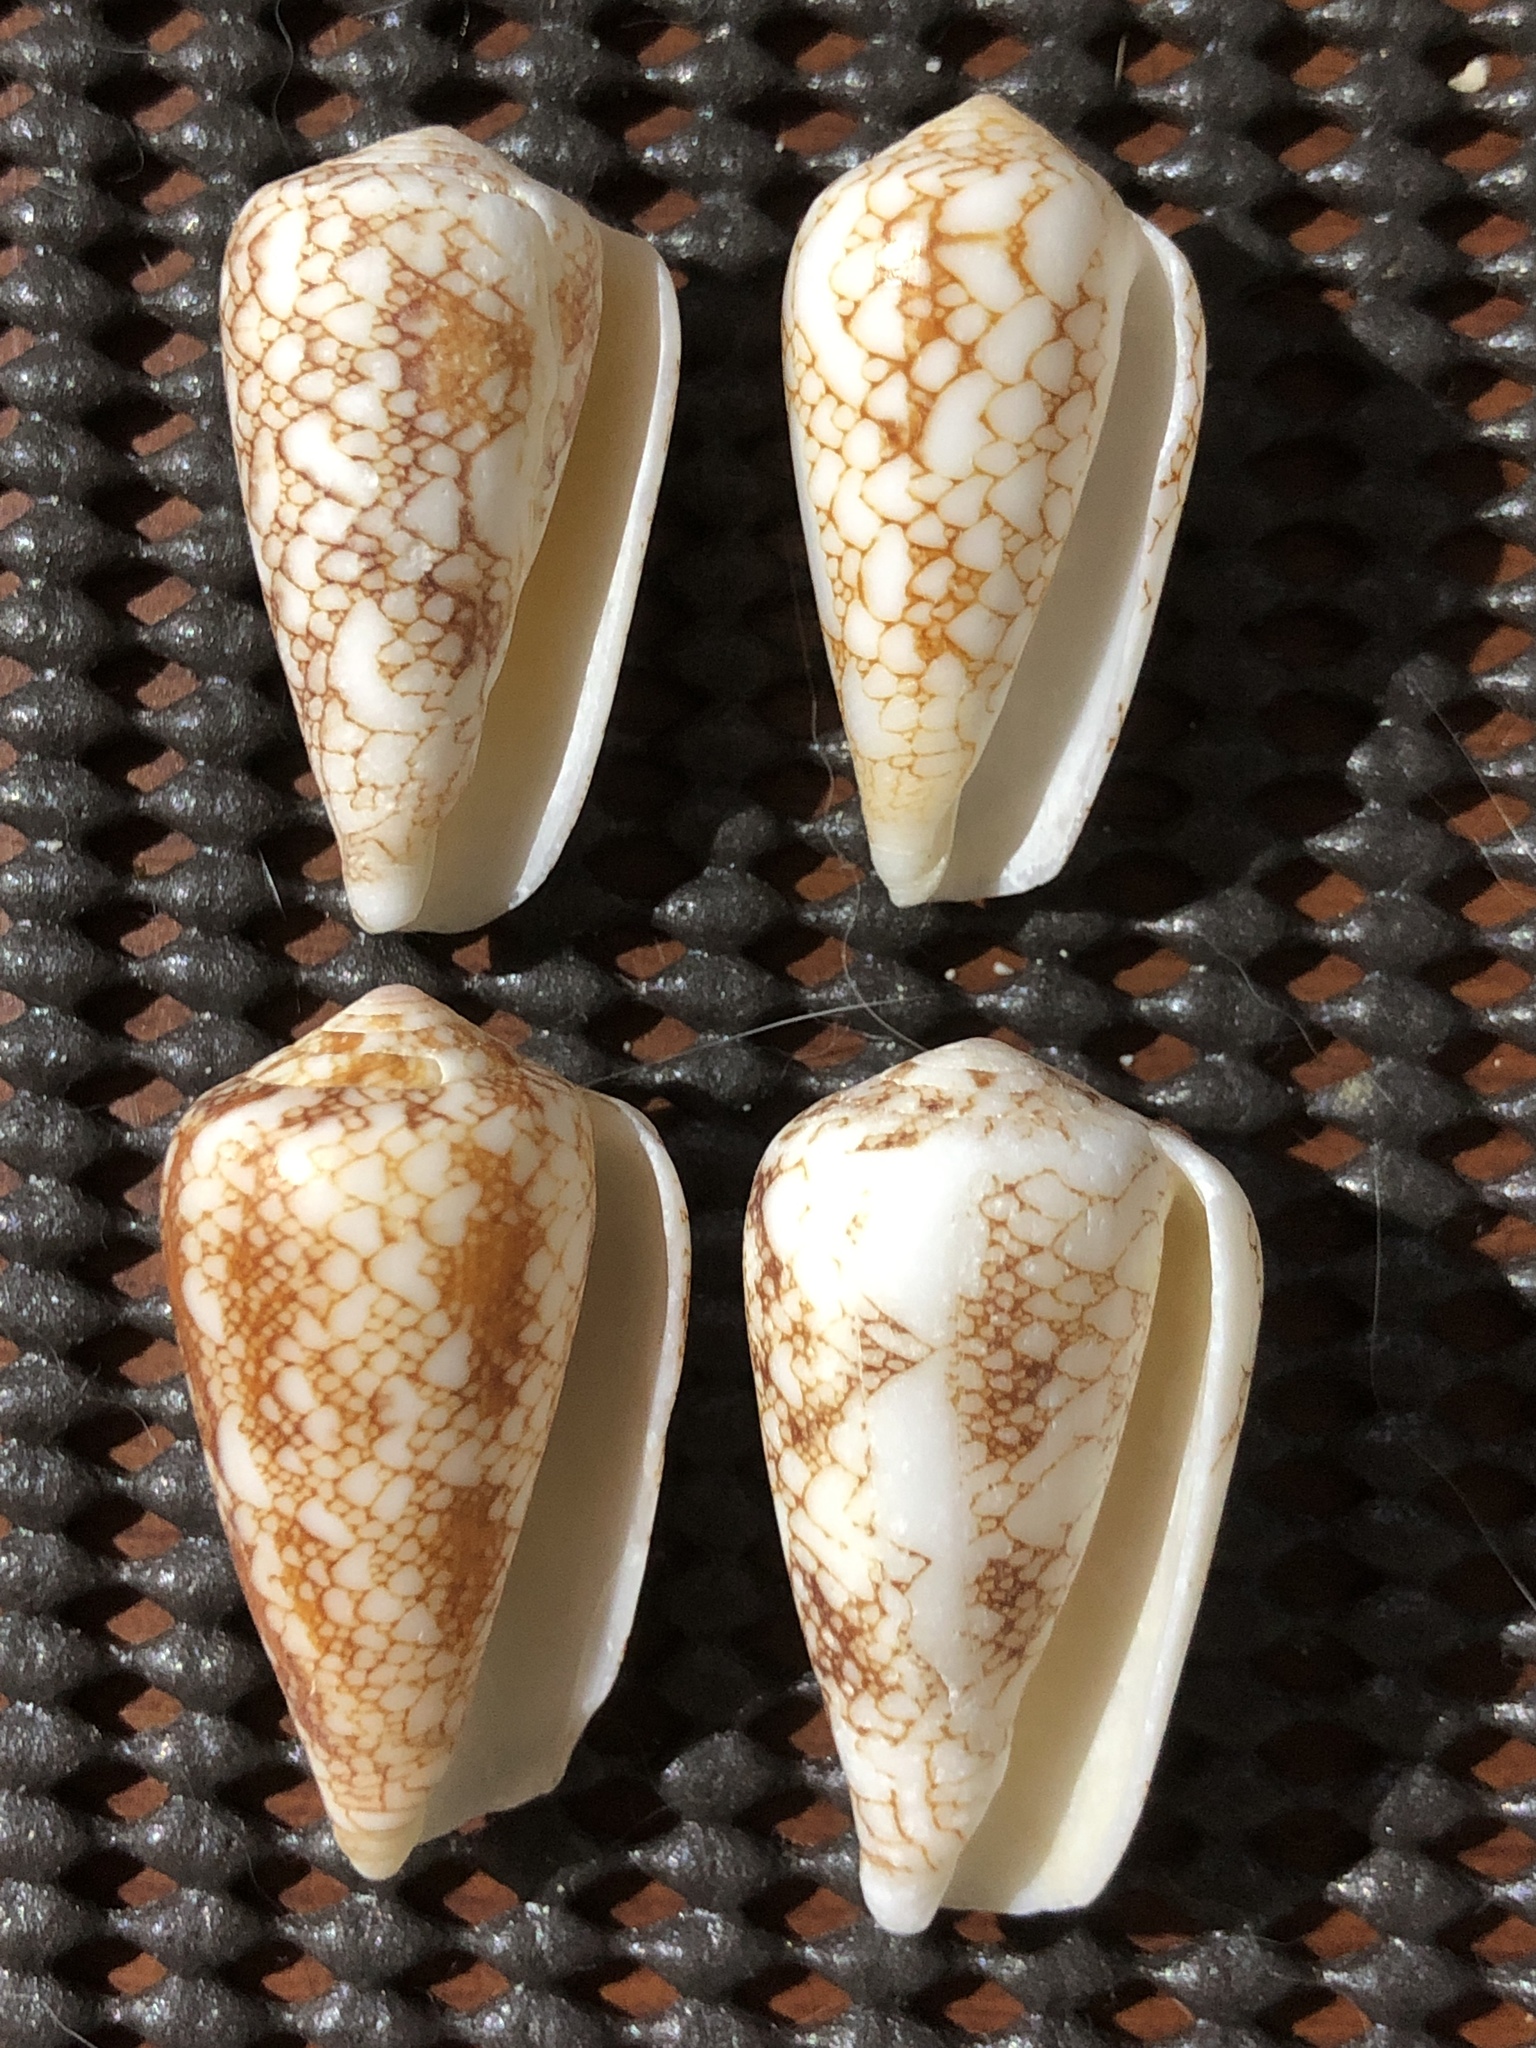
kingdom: Animalia
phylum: Mollusca
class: Gastropoda
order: Neogastropoda
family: Conidae
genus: Conus
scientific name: Conus omaria
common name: Omaria cone
